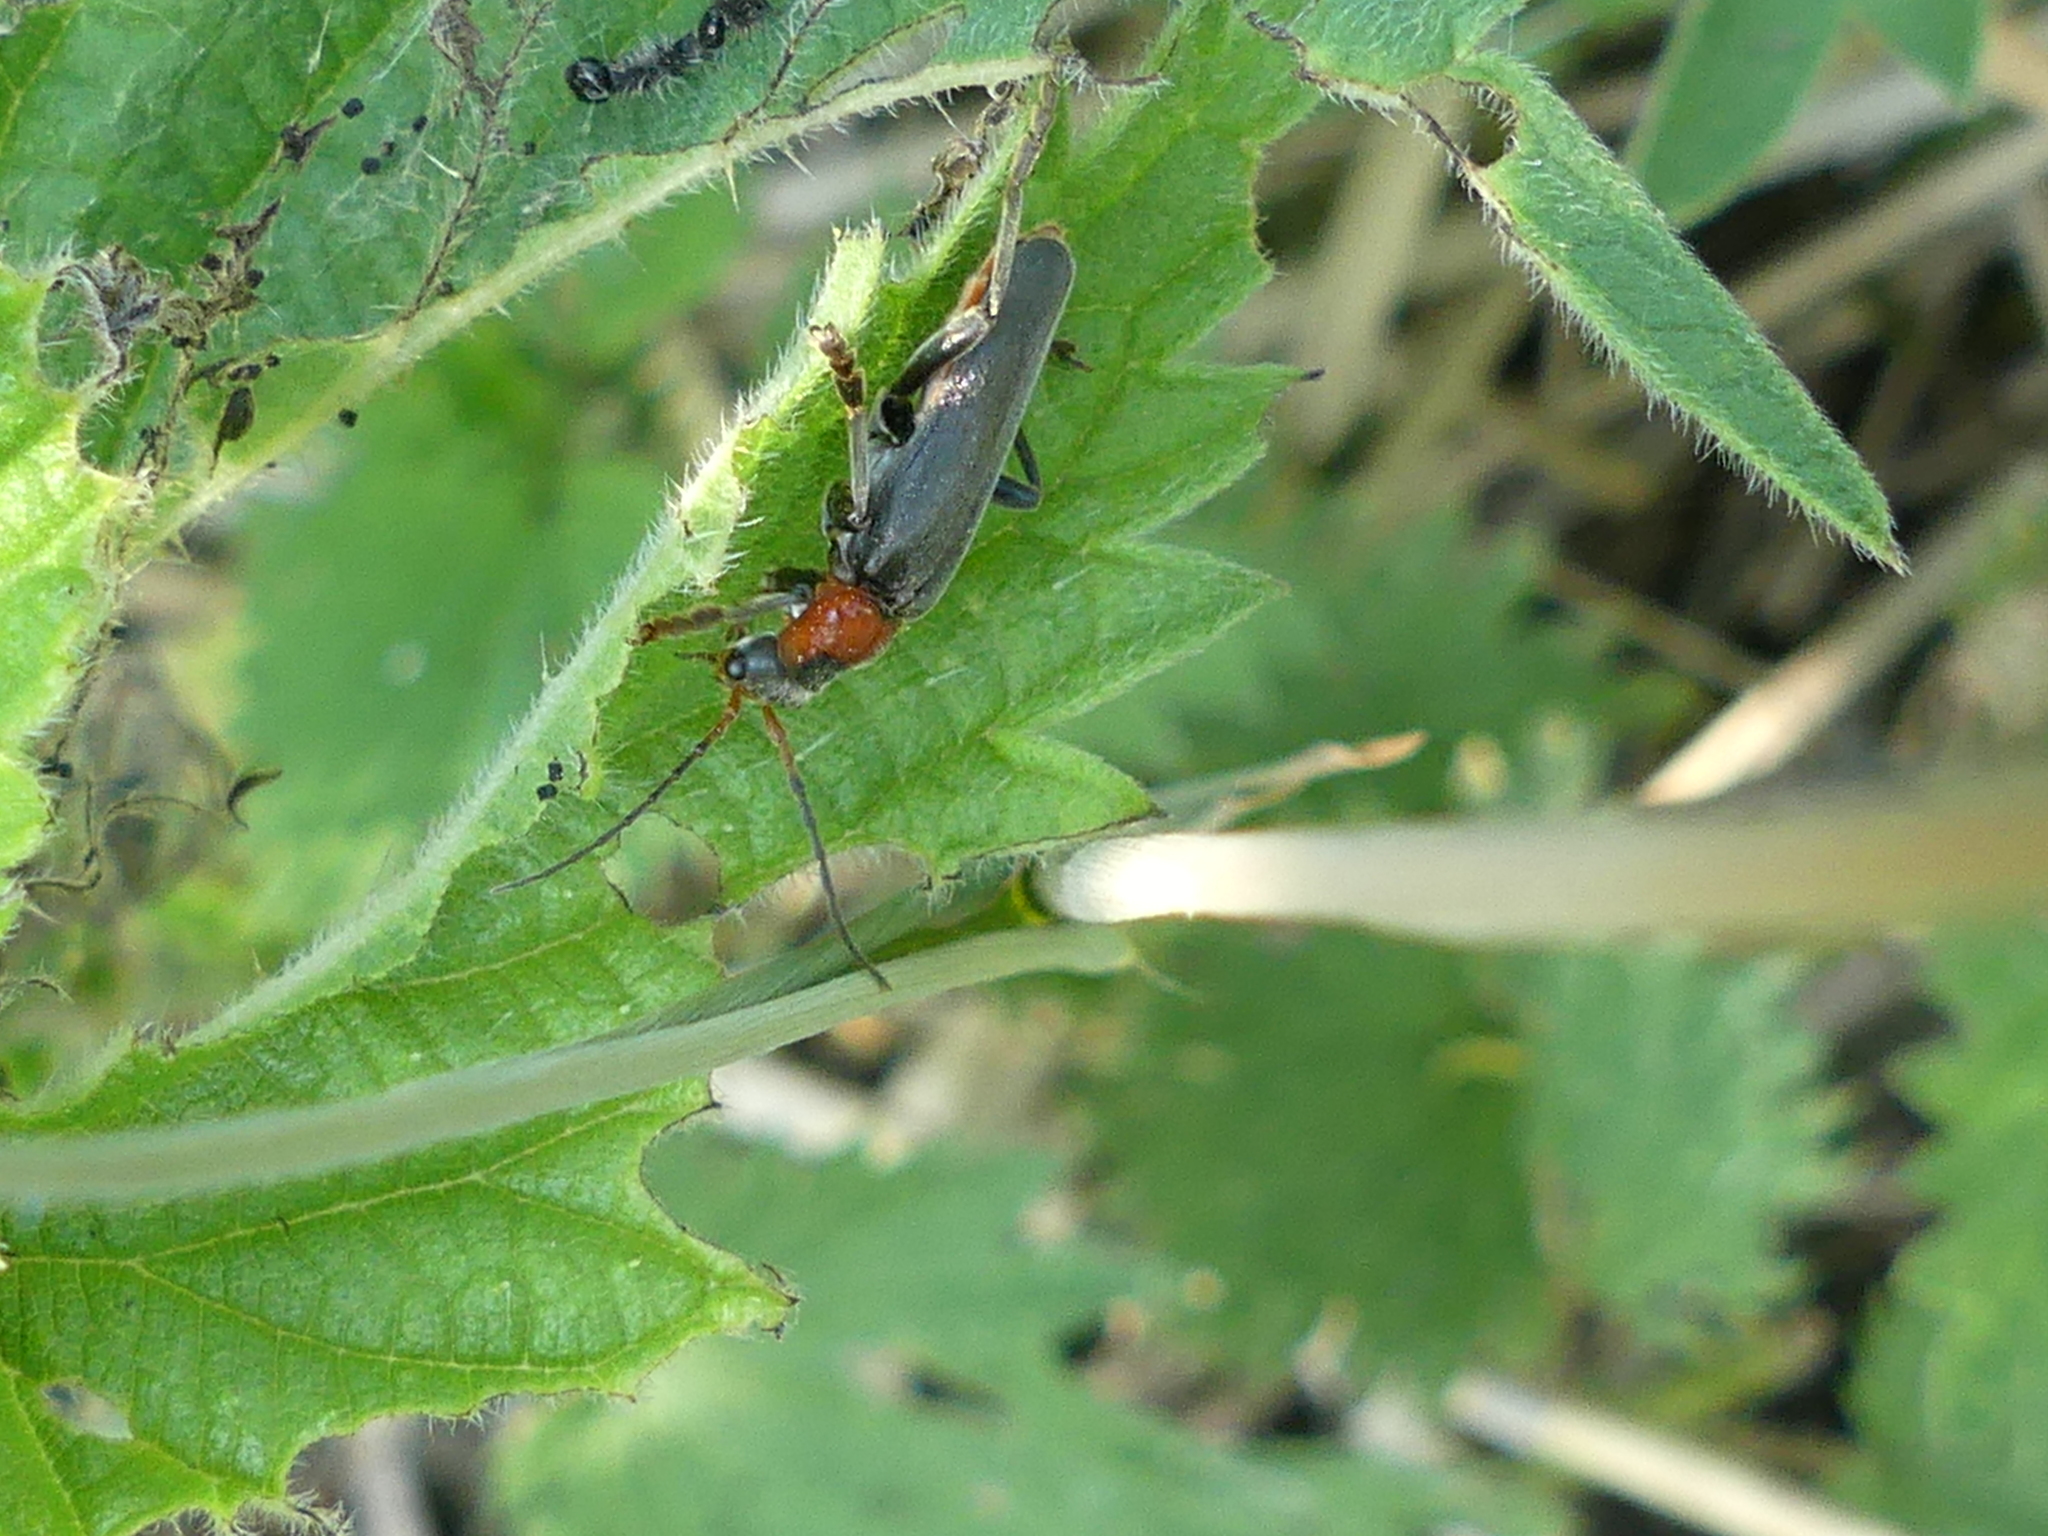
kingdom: Animalia
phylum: Arthropoda
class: Insecta
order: Coleoptera
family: Cantharidae
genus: Cantharis
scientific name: Cantharis fusca
